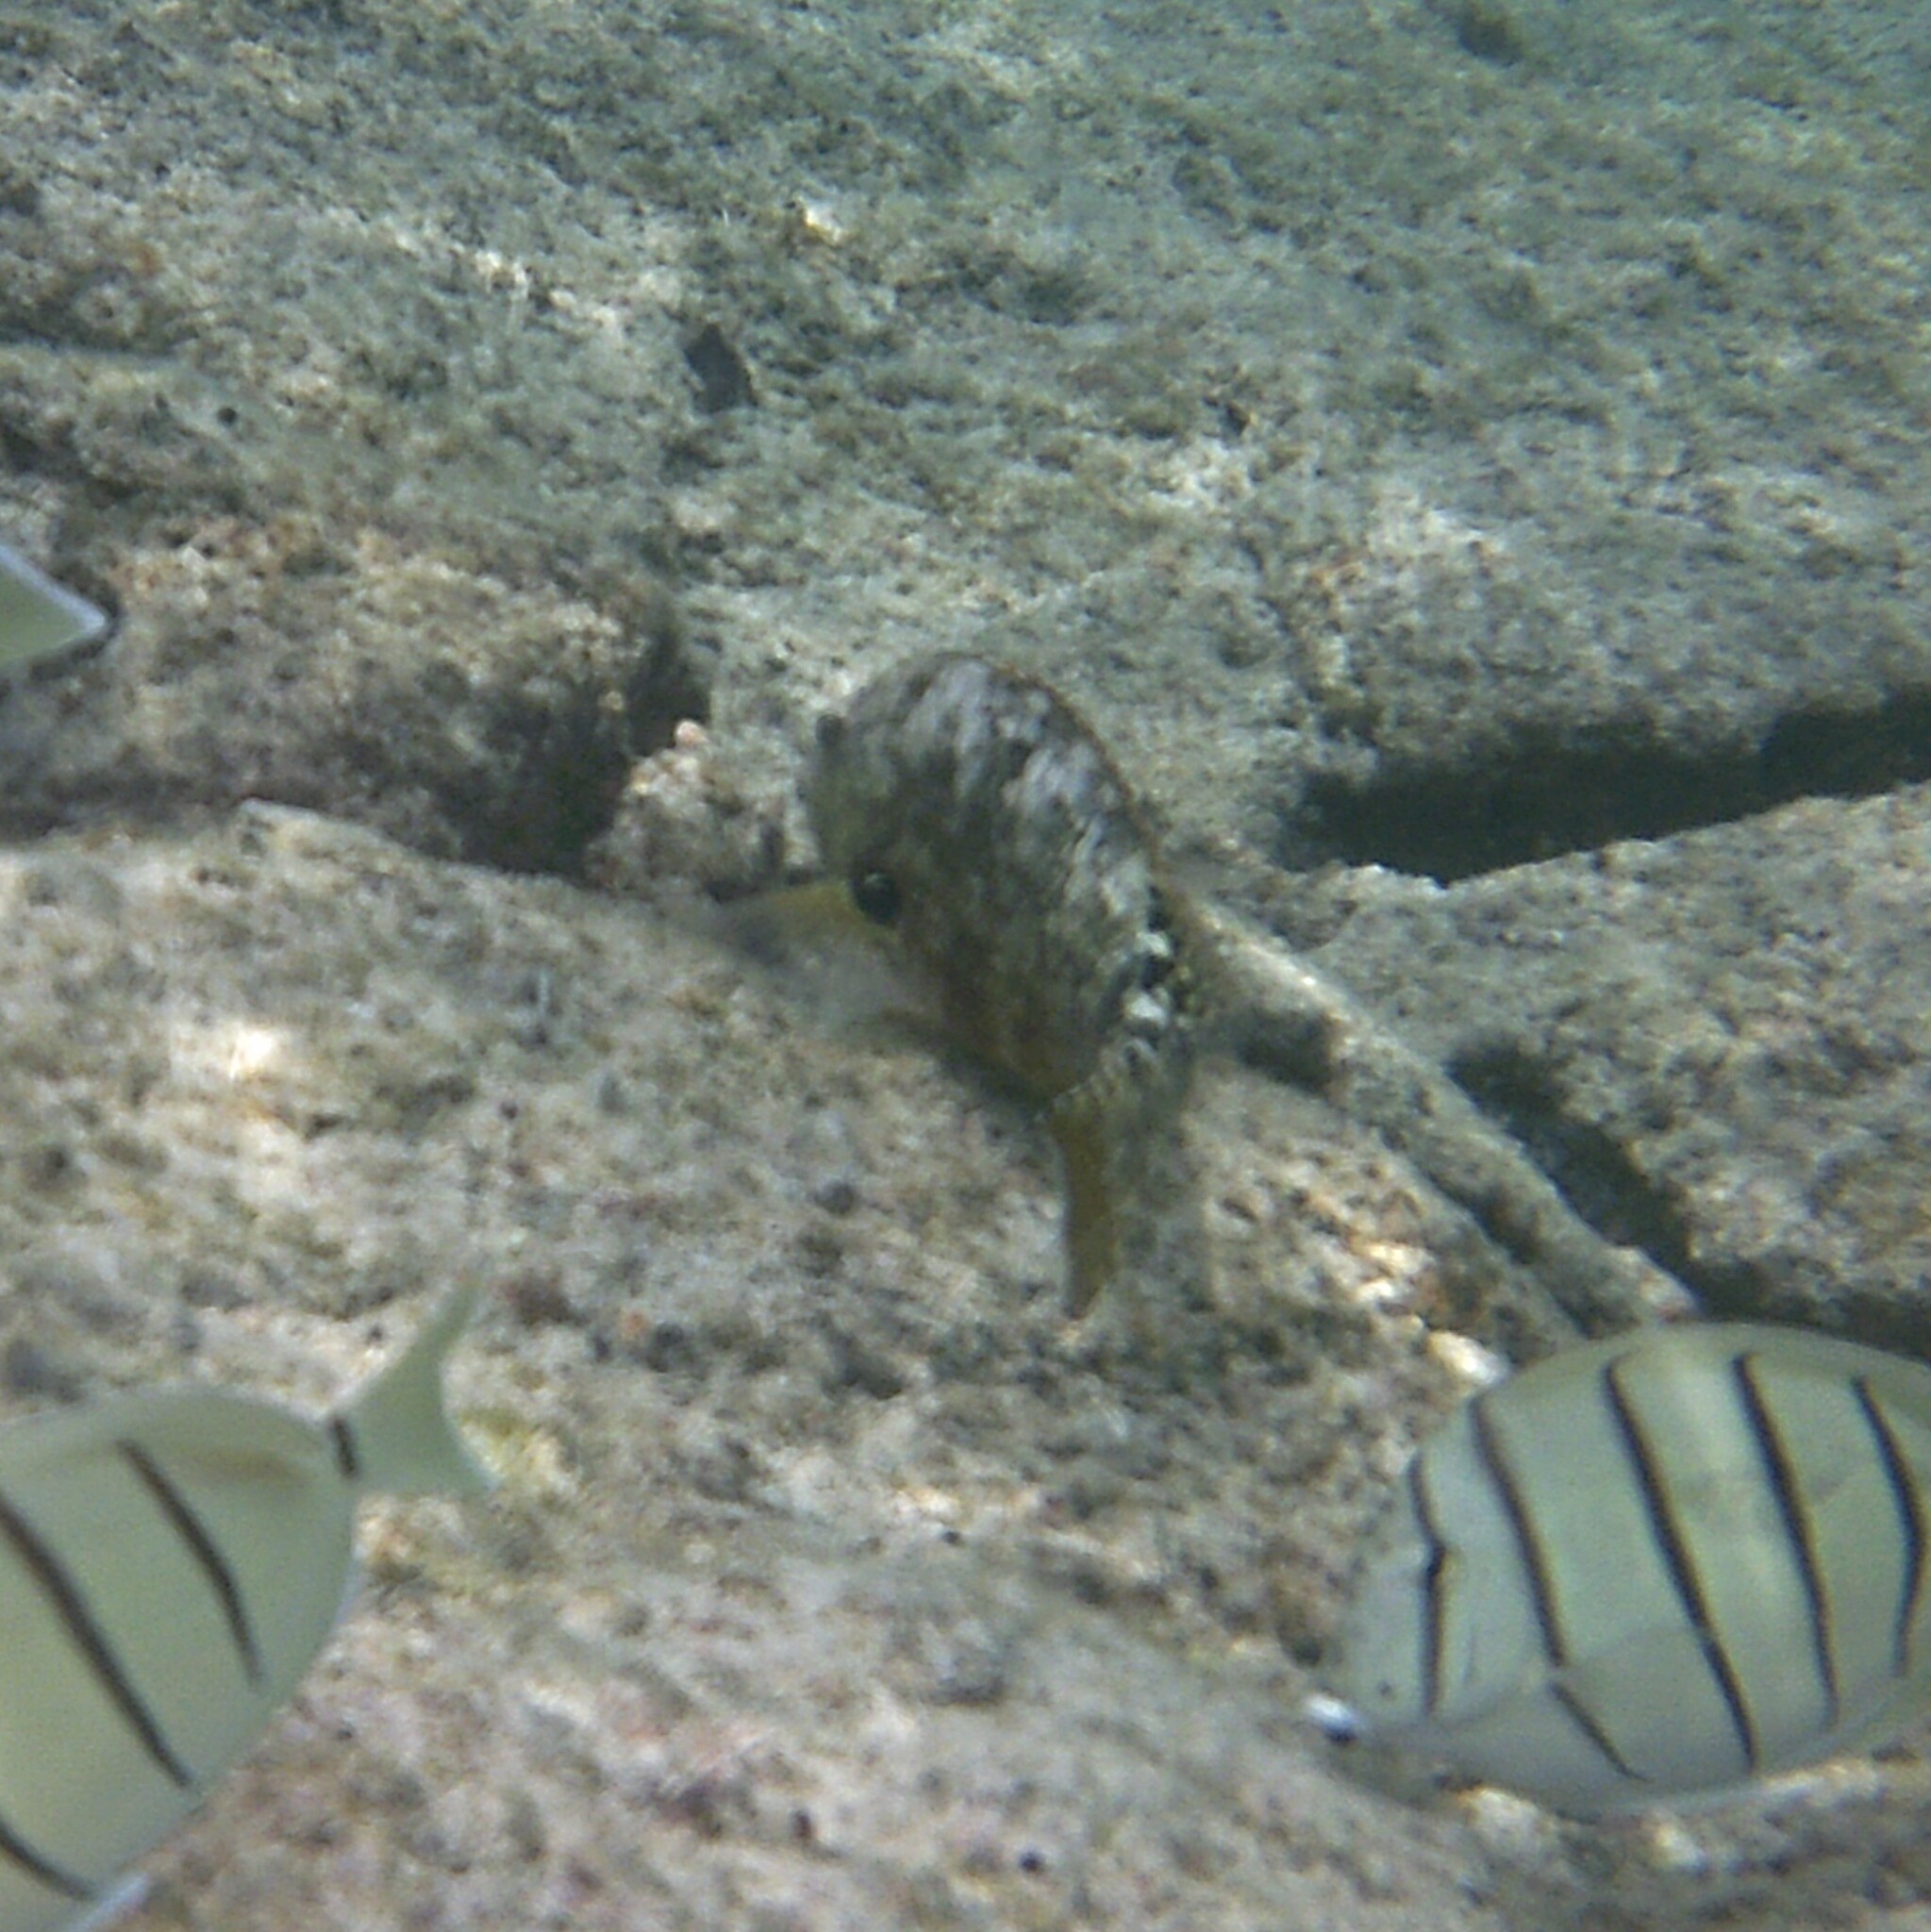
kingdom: Animalia
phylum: Chordata
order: Perciformes
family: Scaridae
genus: Calotomus
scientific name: Calotomus carolinus
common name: Bucktooth
